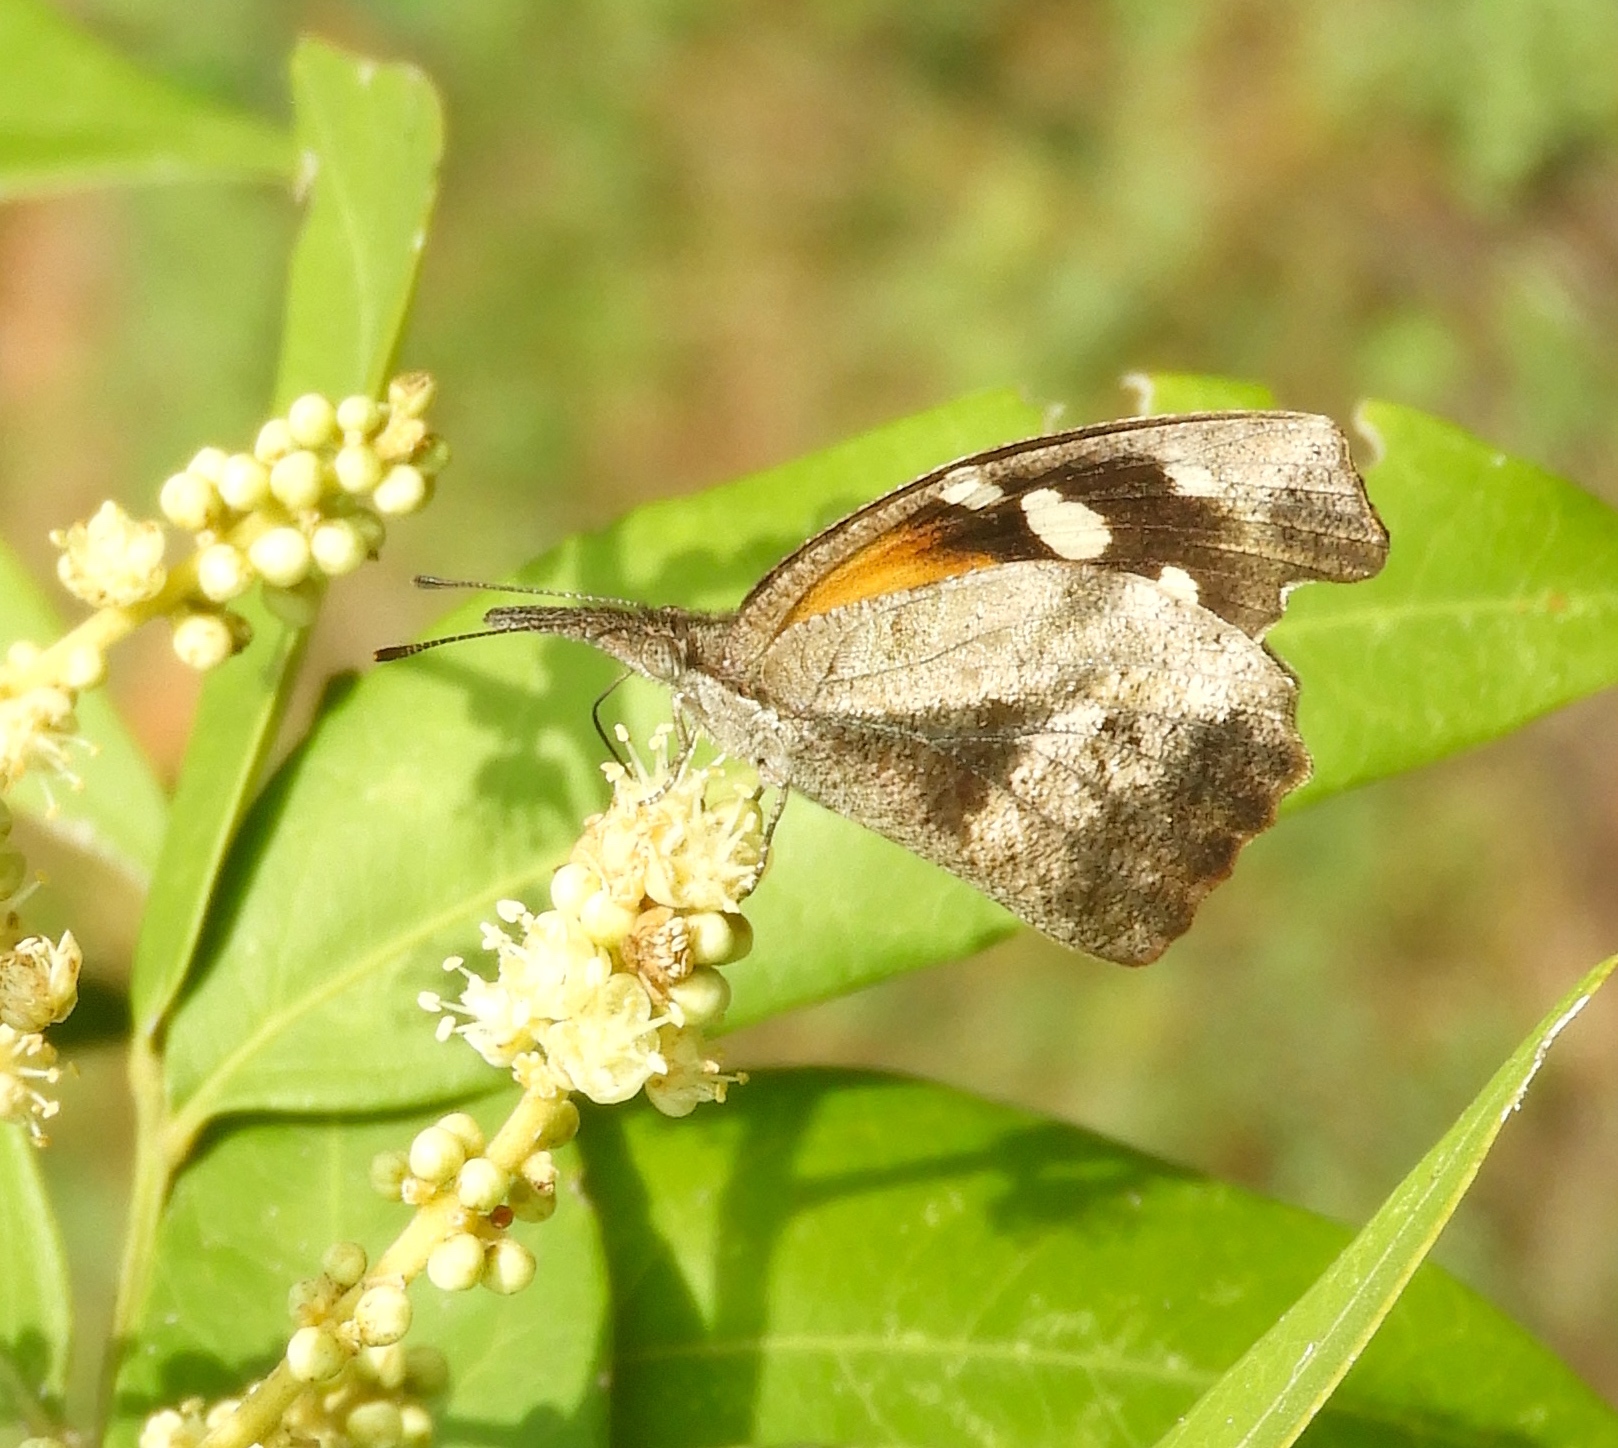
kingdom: Animalia
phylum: Arthropoda
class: Insecta
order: Lepidoptera
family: Nymphalidae
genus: Libytheana
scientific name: Libytheana carinenta
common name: American snout
